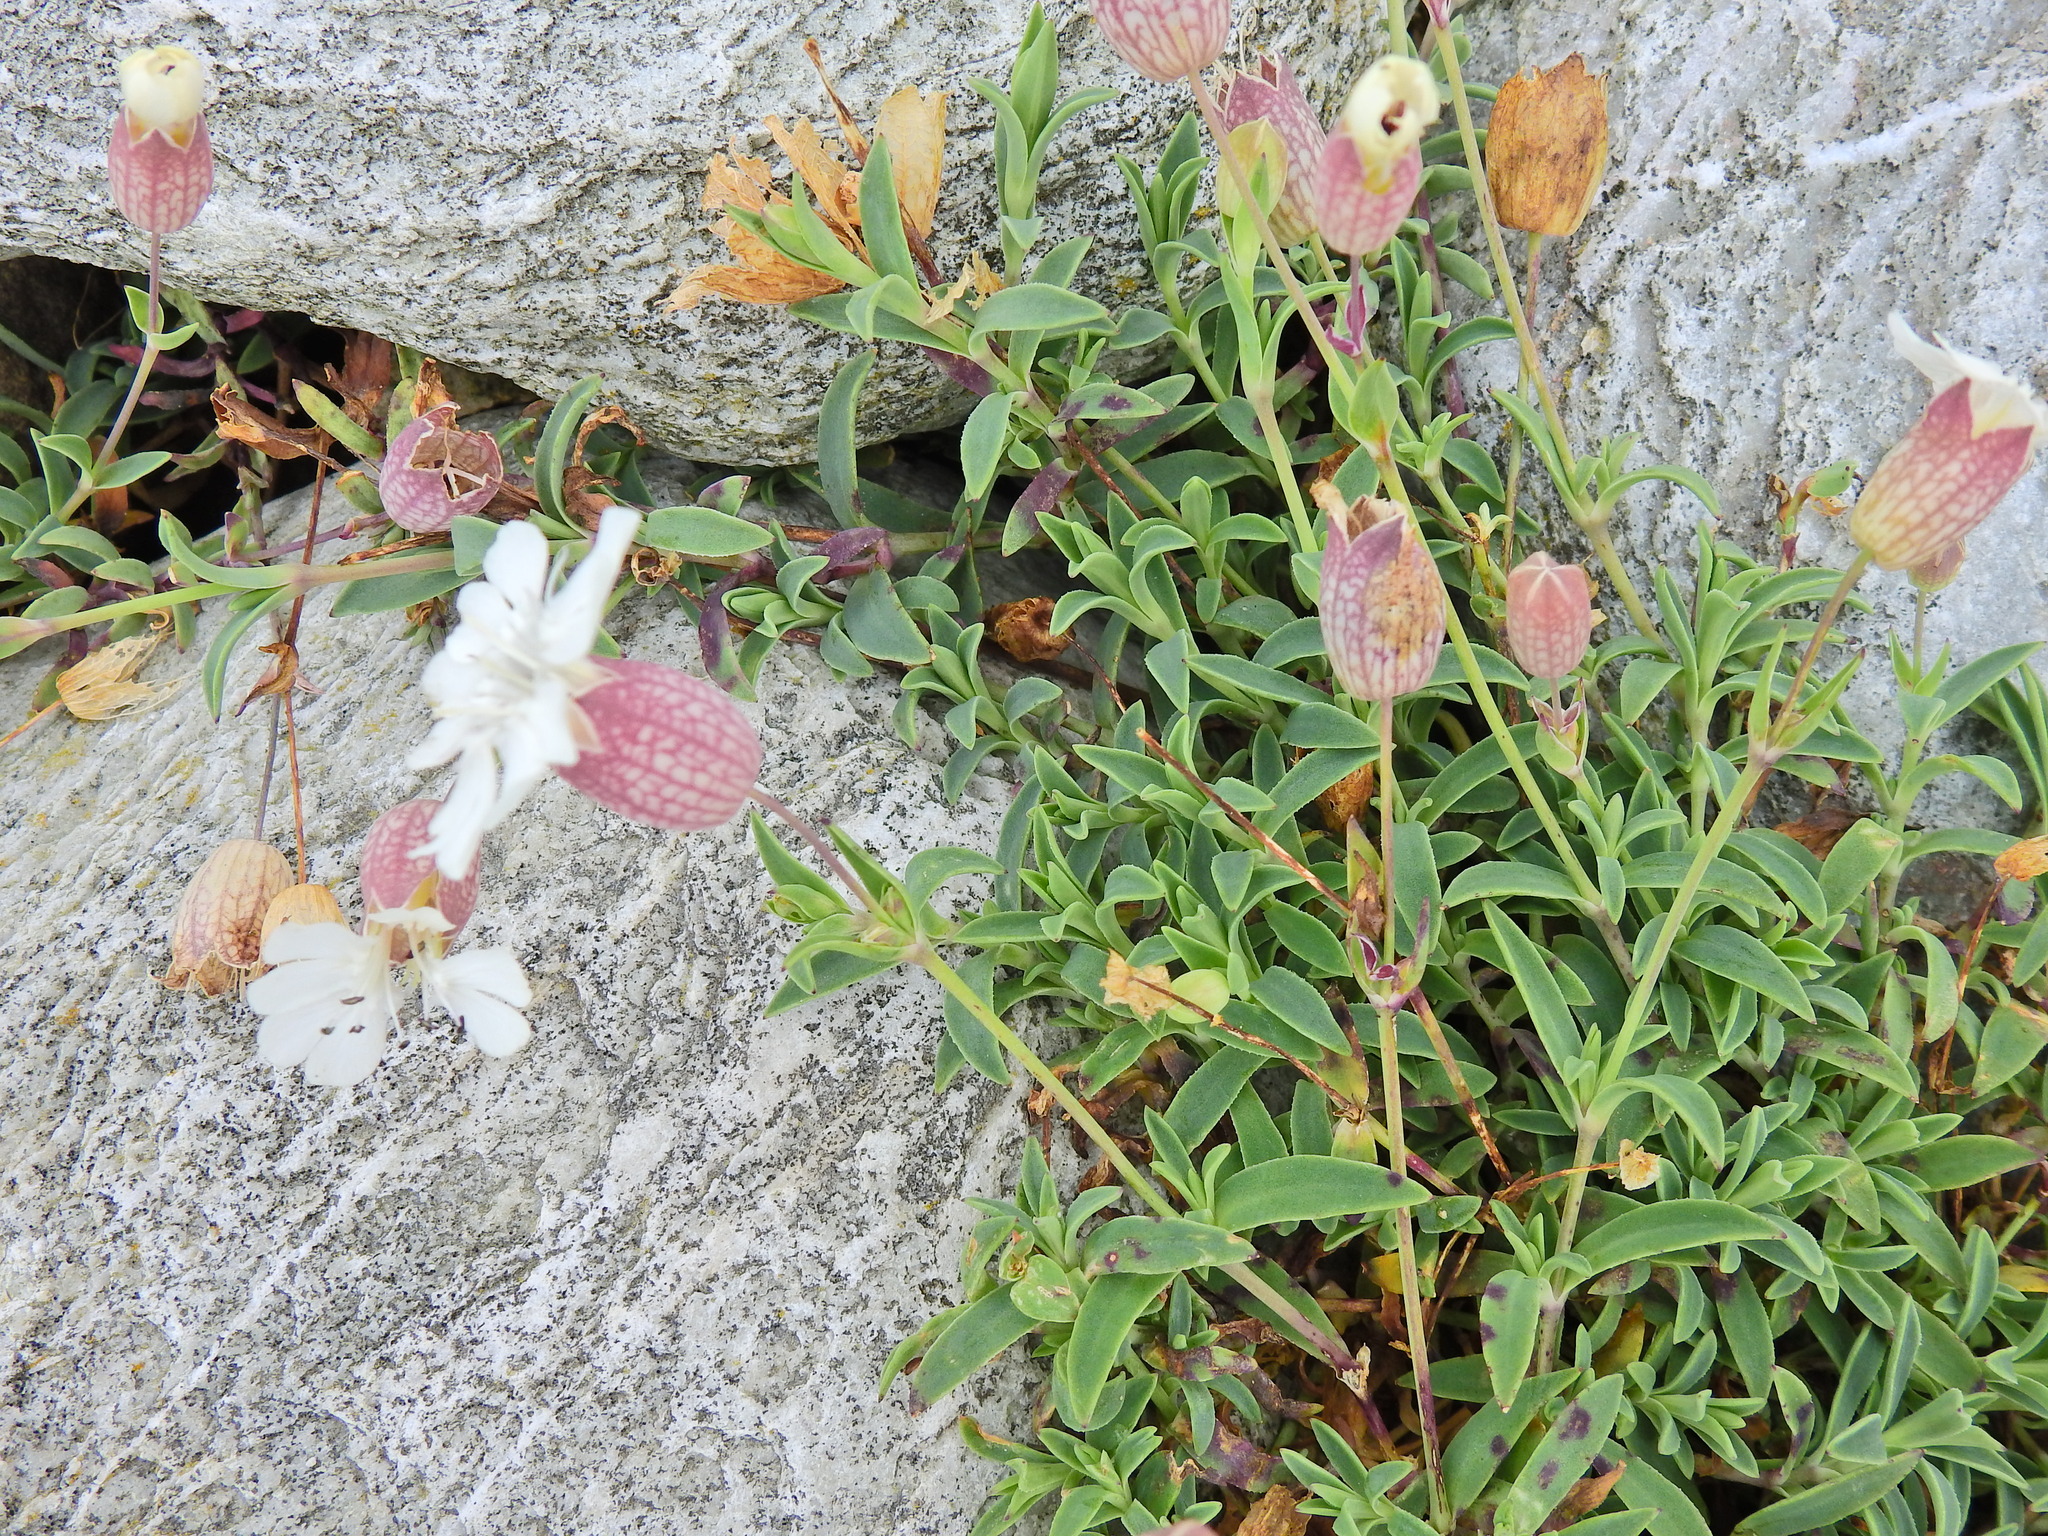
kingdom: Plantae
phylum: Tracheophyta
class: Magnoliopsida
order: Caryophyllales
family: Caryophyllaceae
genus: Silene
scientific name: Silene uniflora
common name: Sea campion
